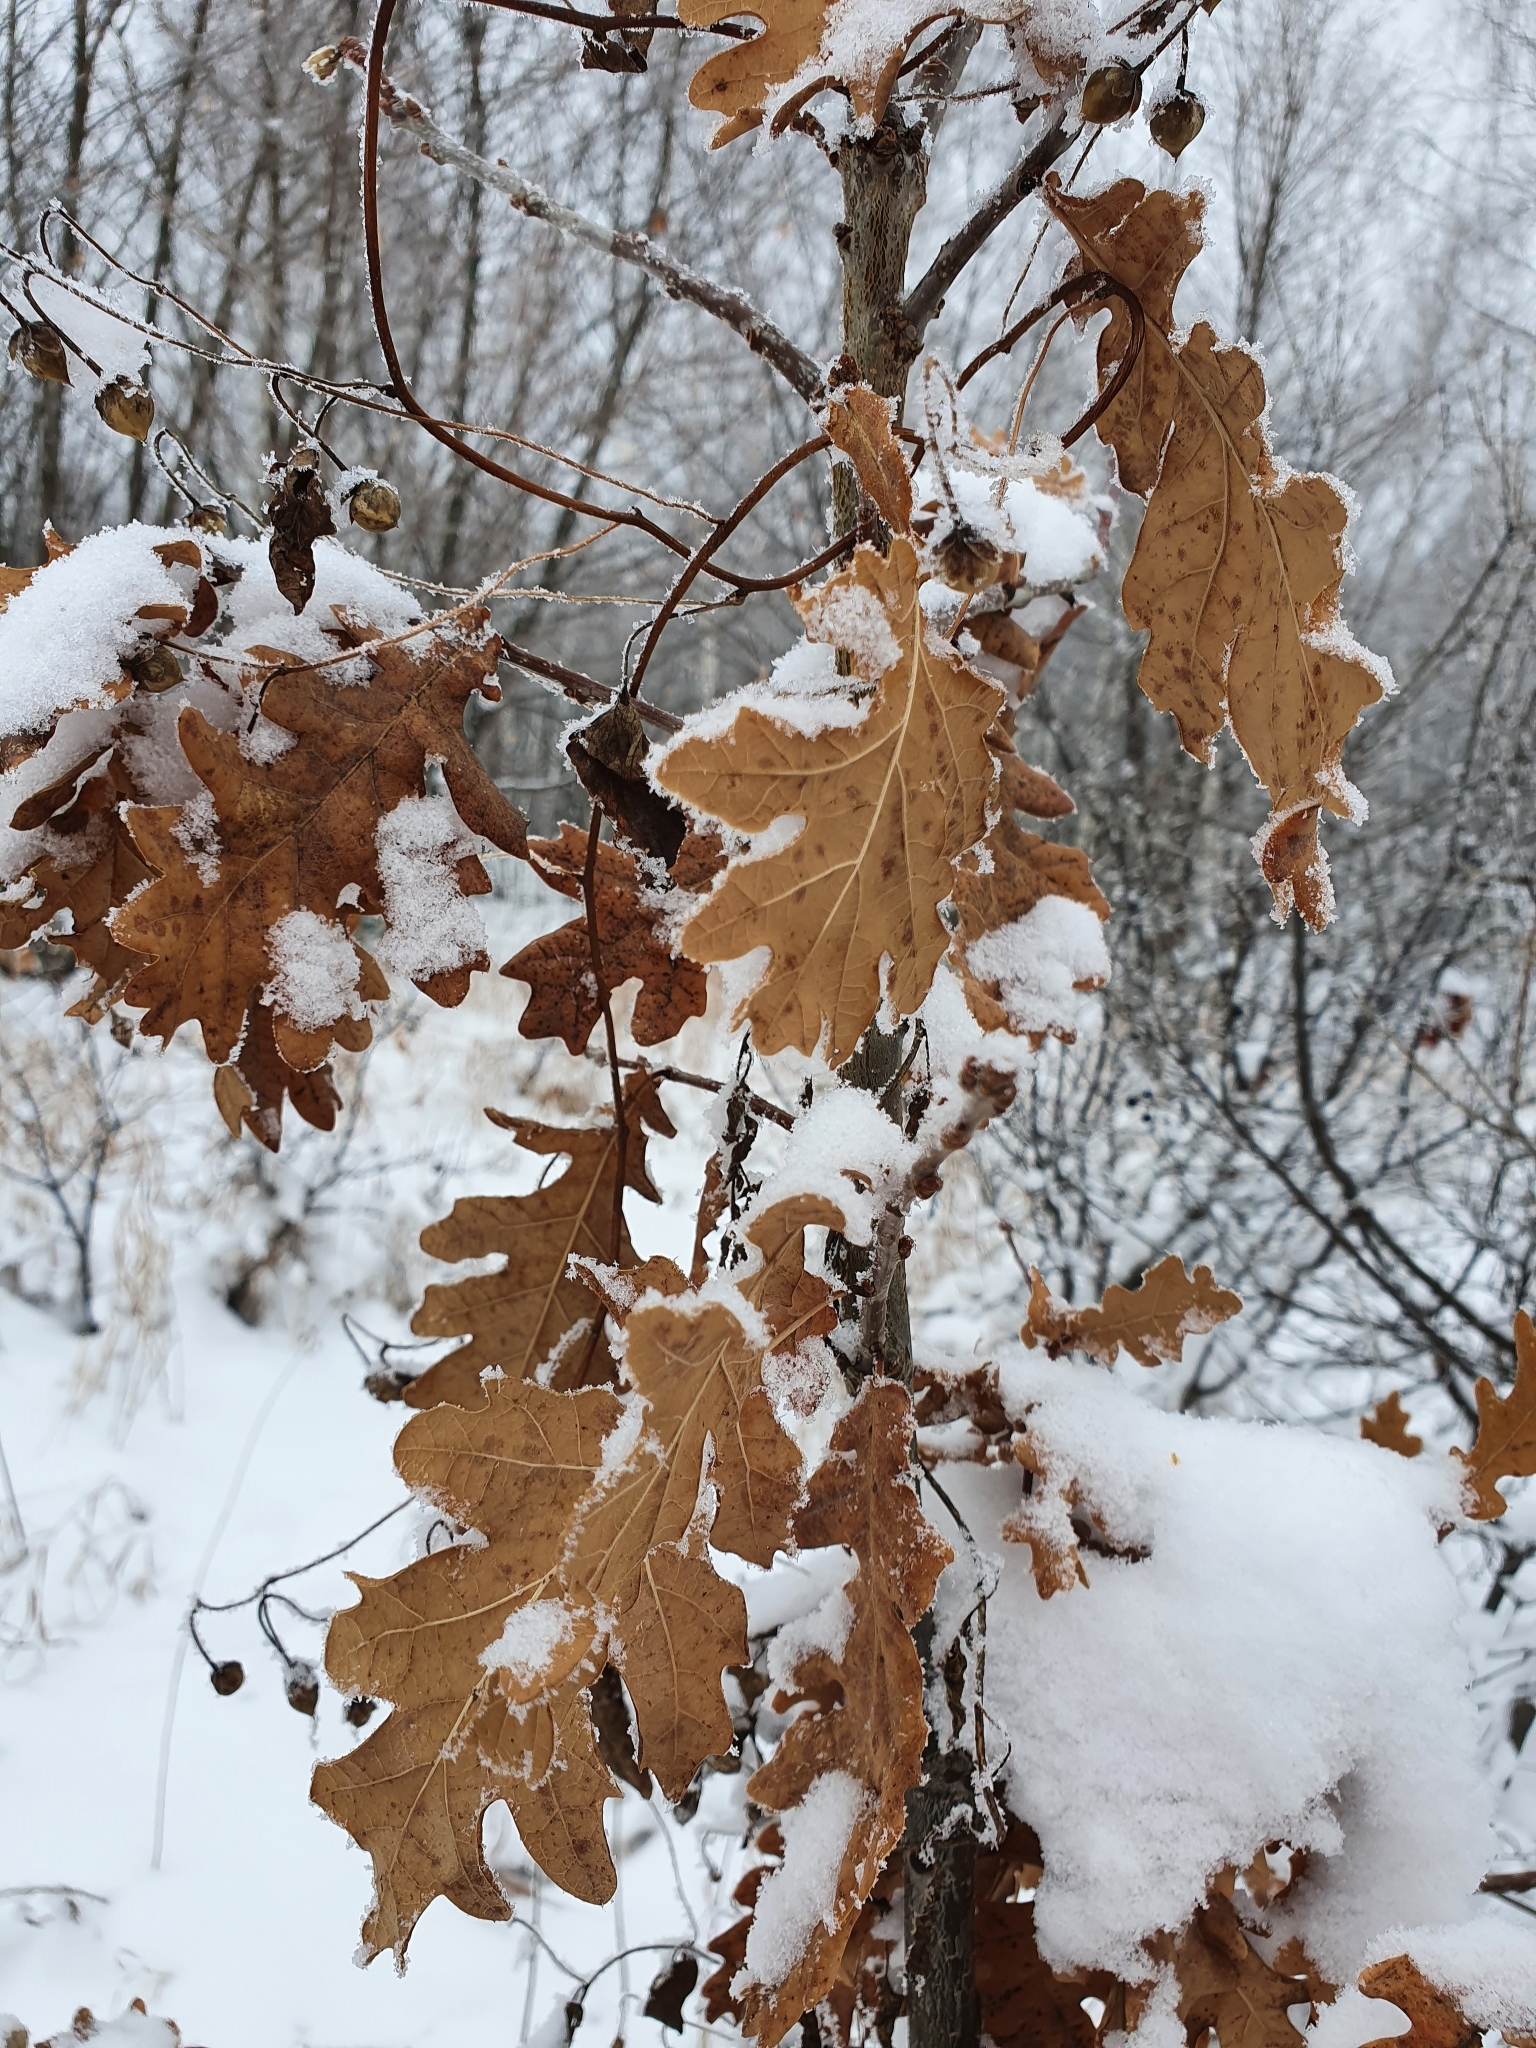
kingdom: Plantae
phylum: Tracheophyta
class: Magnoliopsida
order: Fagales
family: Fagaceae
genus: Quercus
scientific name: Quercus robur
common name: Pedunculate oak
